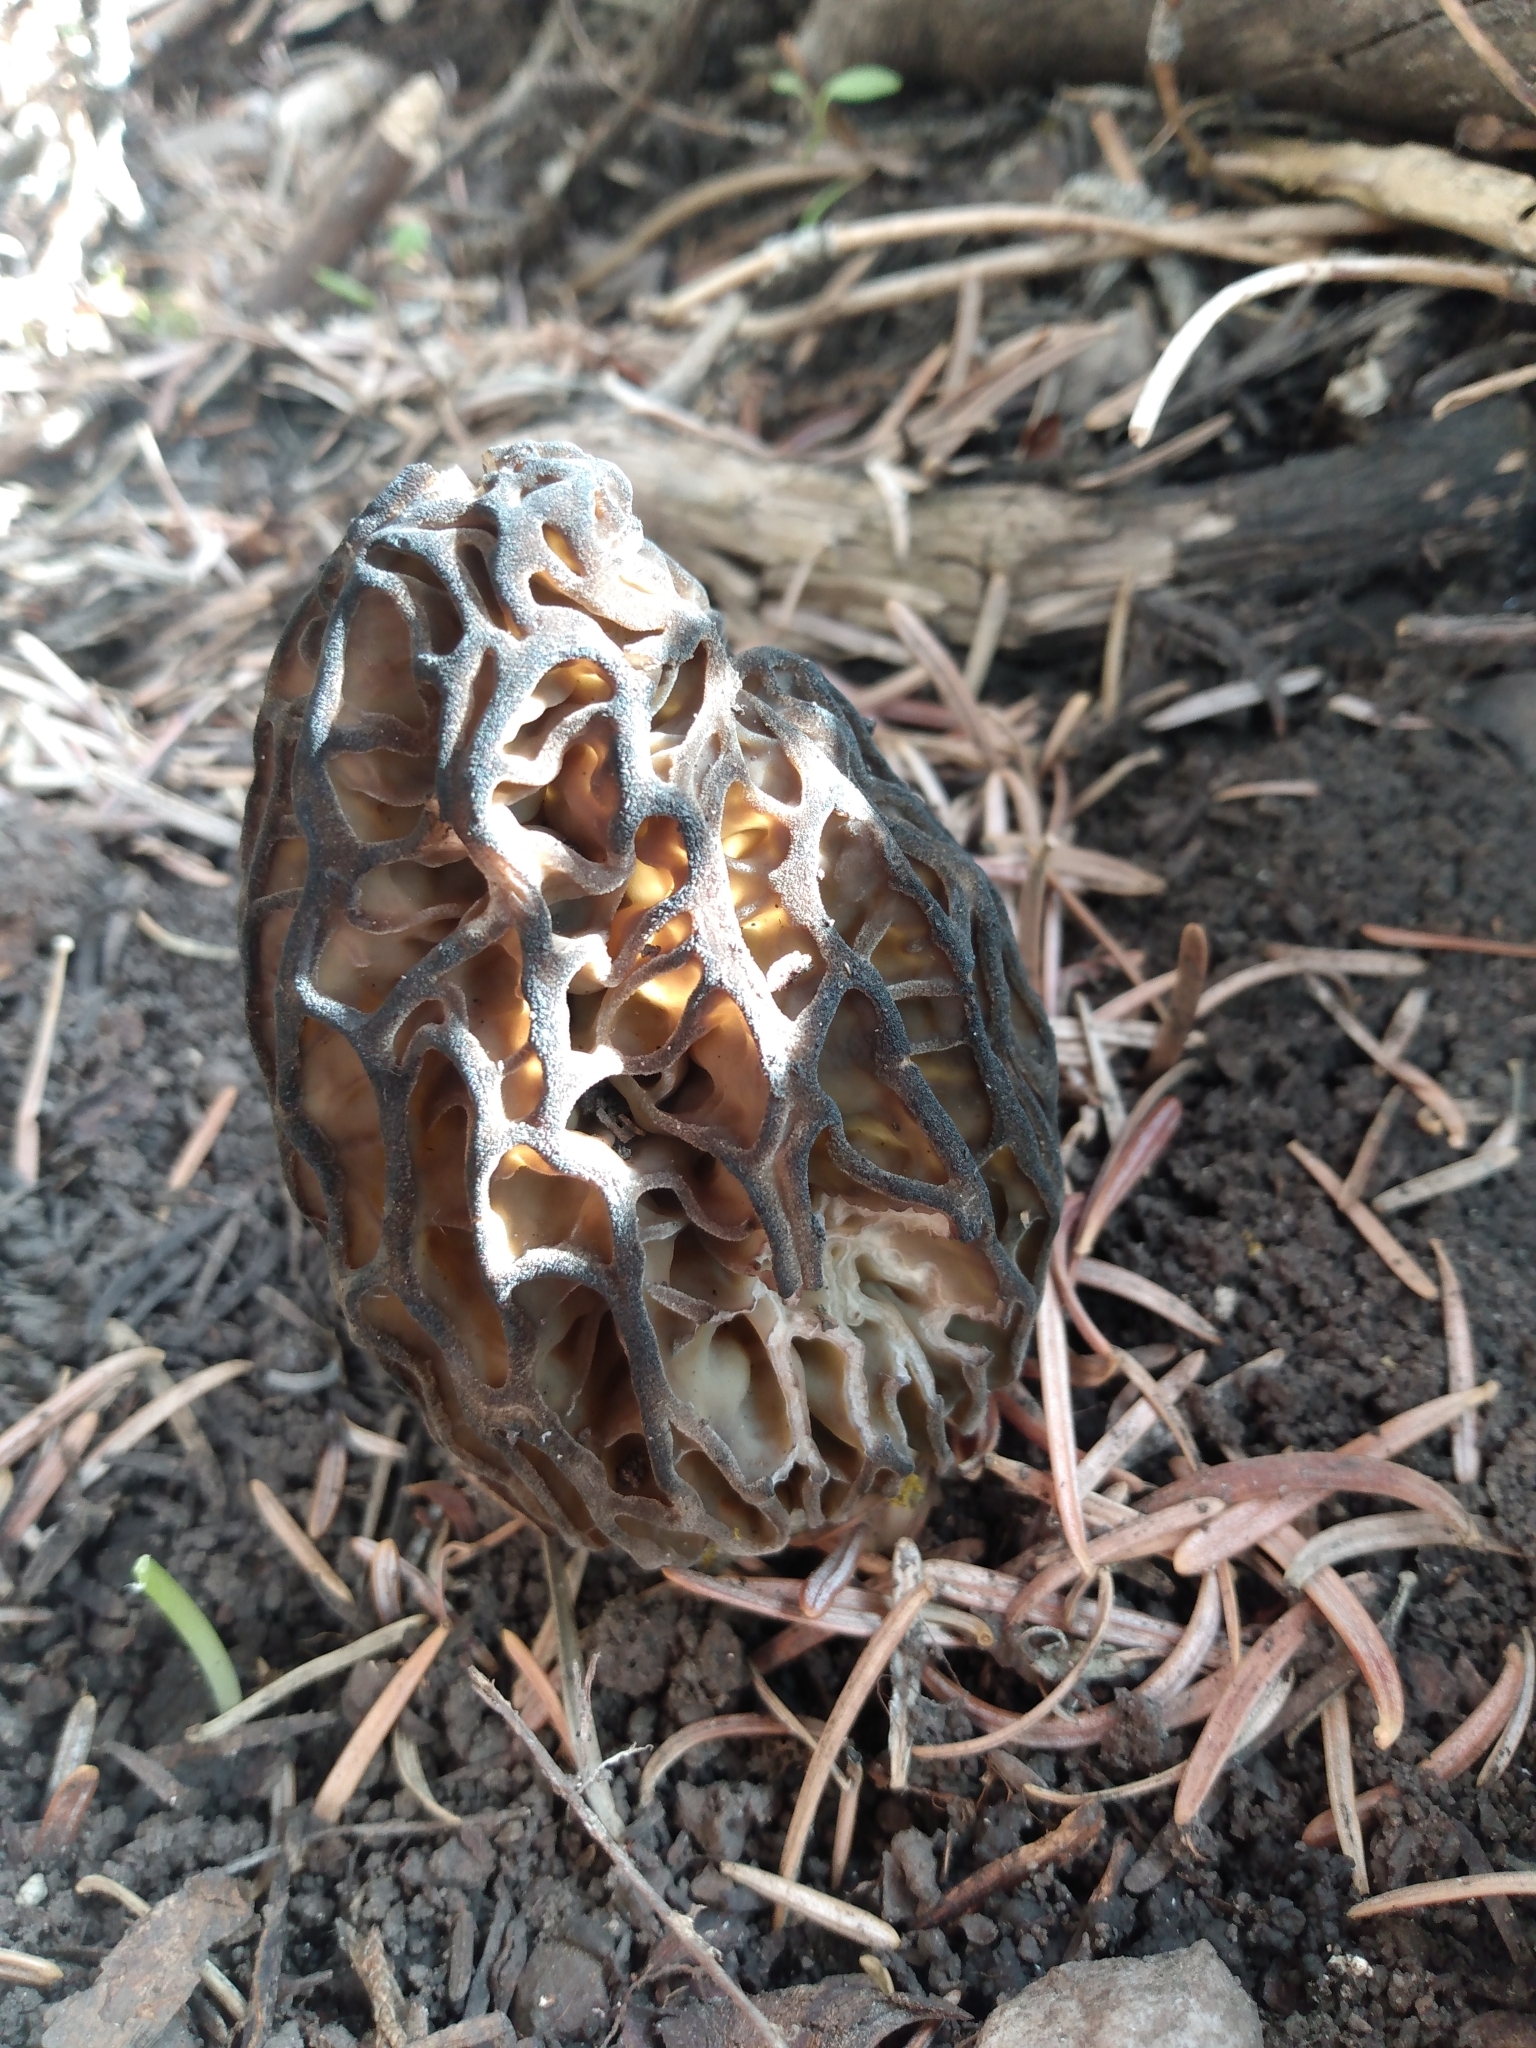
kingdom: Fungi
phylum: Ascomycota
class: Pezizomycetes
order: Pezizales
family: Morchellaceae
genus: Morchella
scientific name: Morchella snyderi
